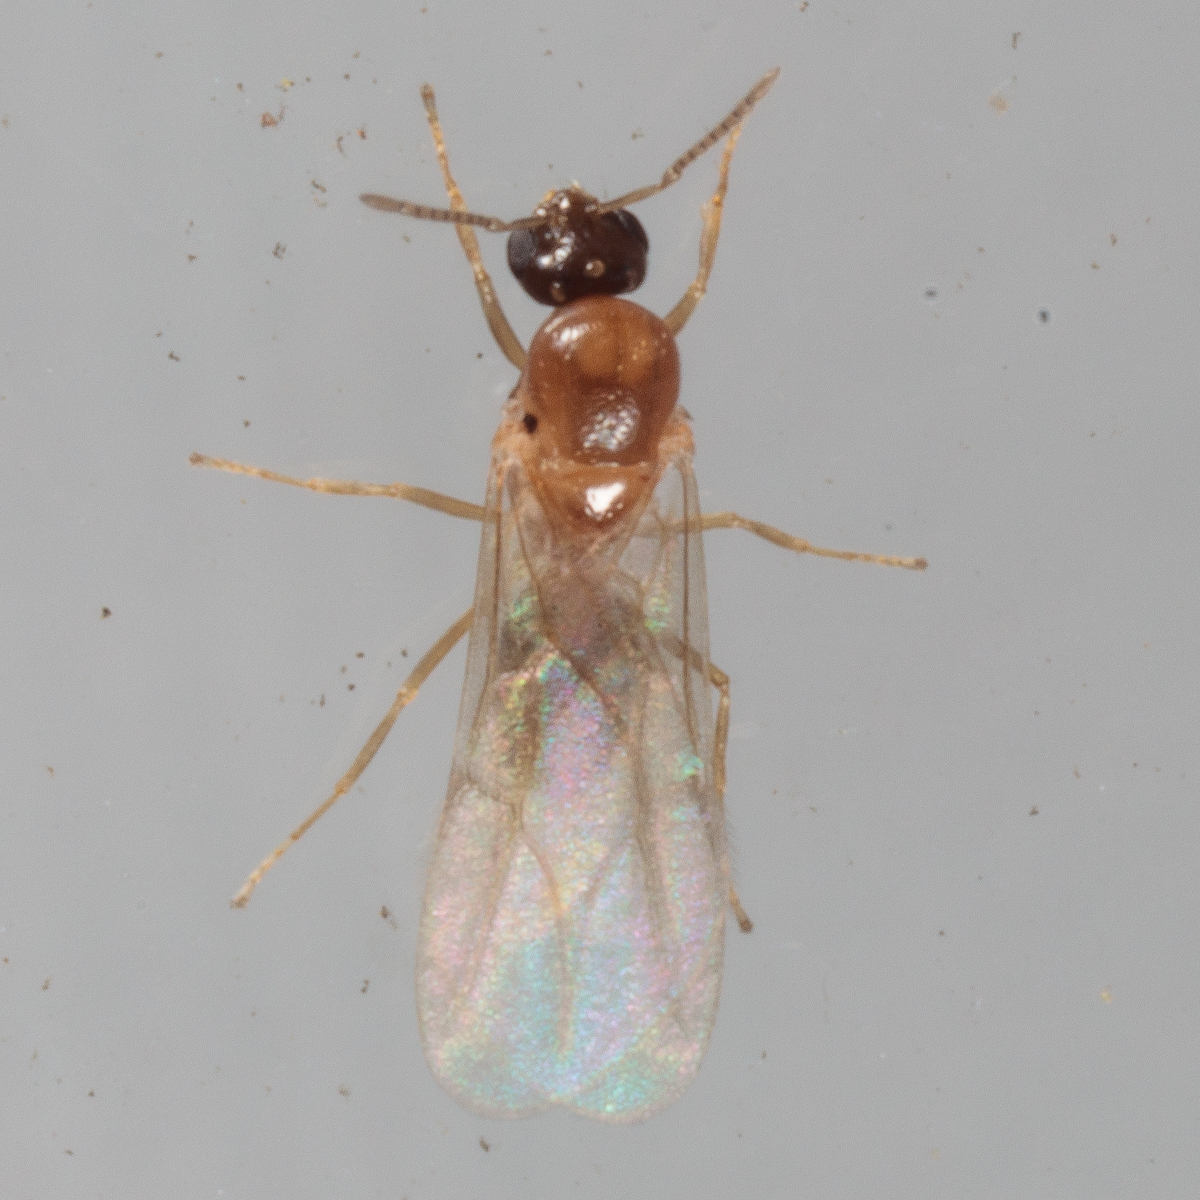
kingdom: Animalia
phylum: Arthropoda
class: Insecta
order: Hymenoptera
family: Formicidae
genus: Brachymyrmex
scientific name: Brachymyrmex patagonicus
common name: Dark rover ant
